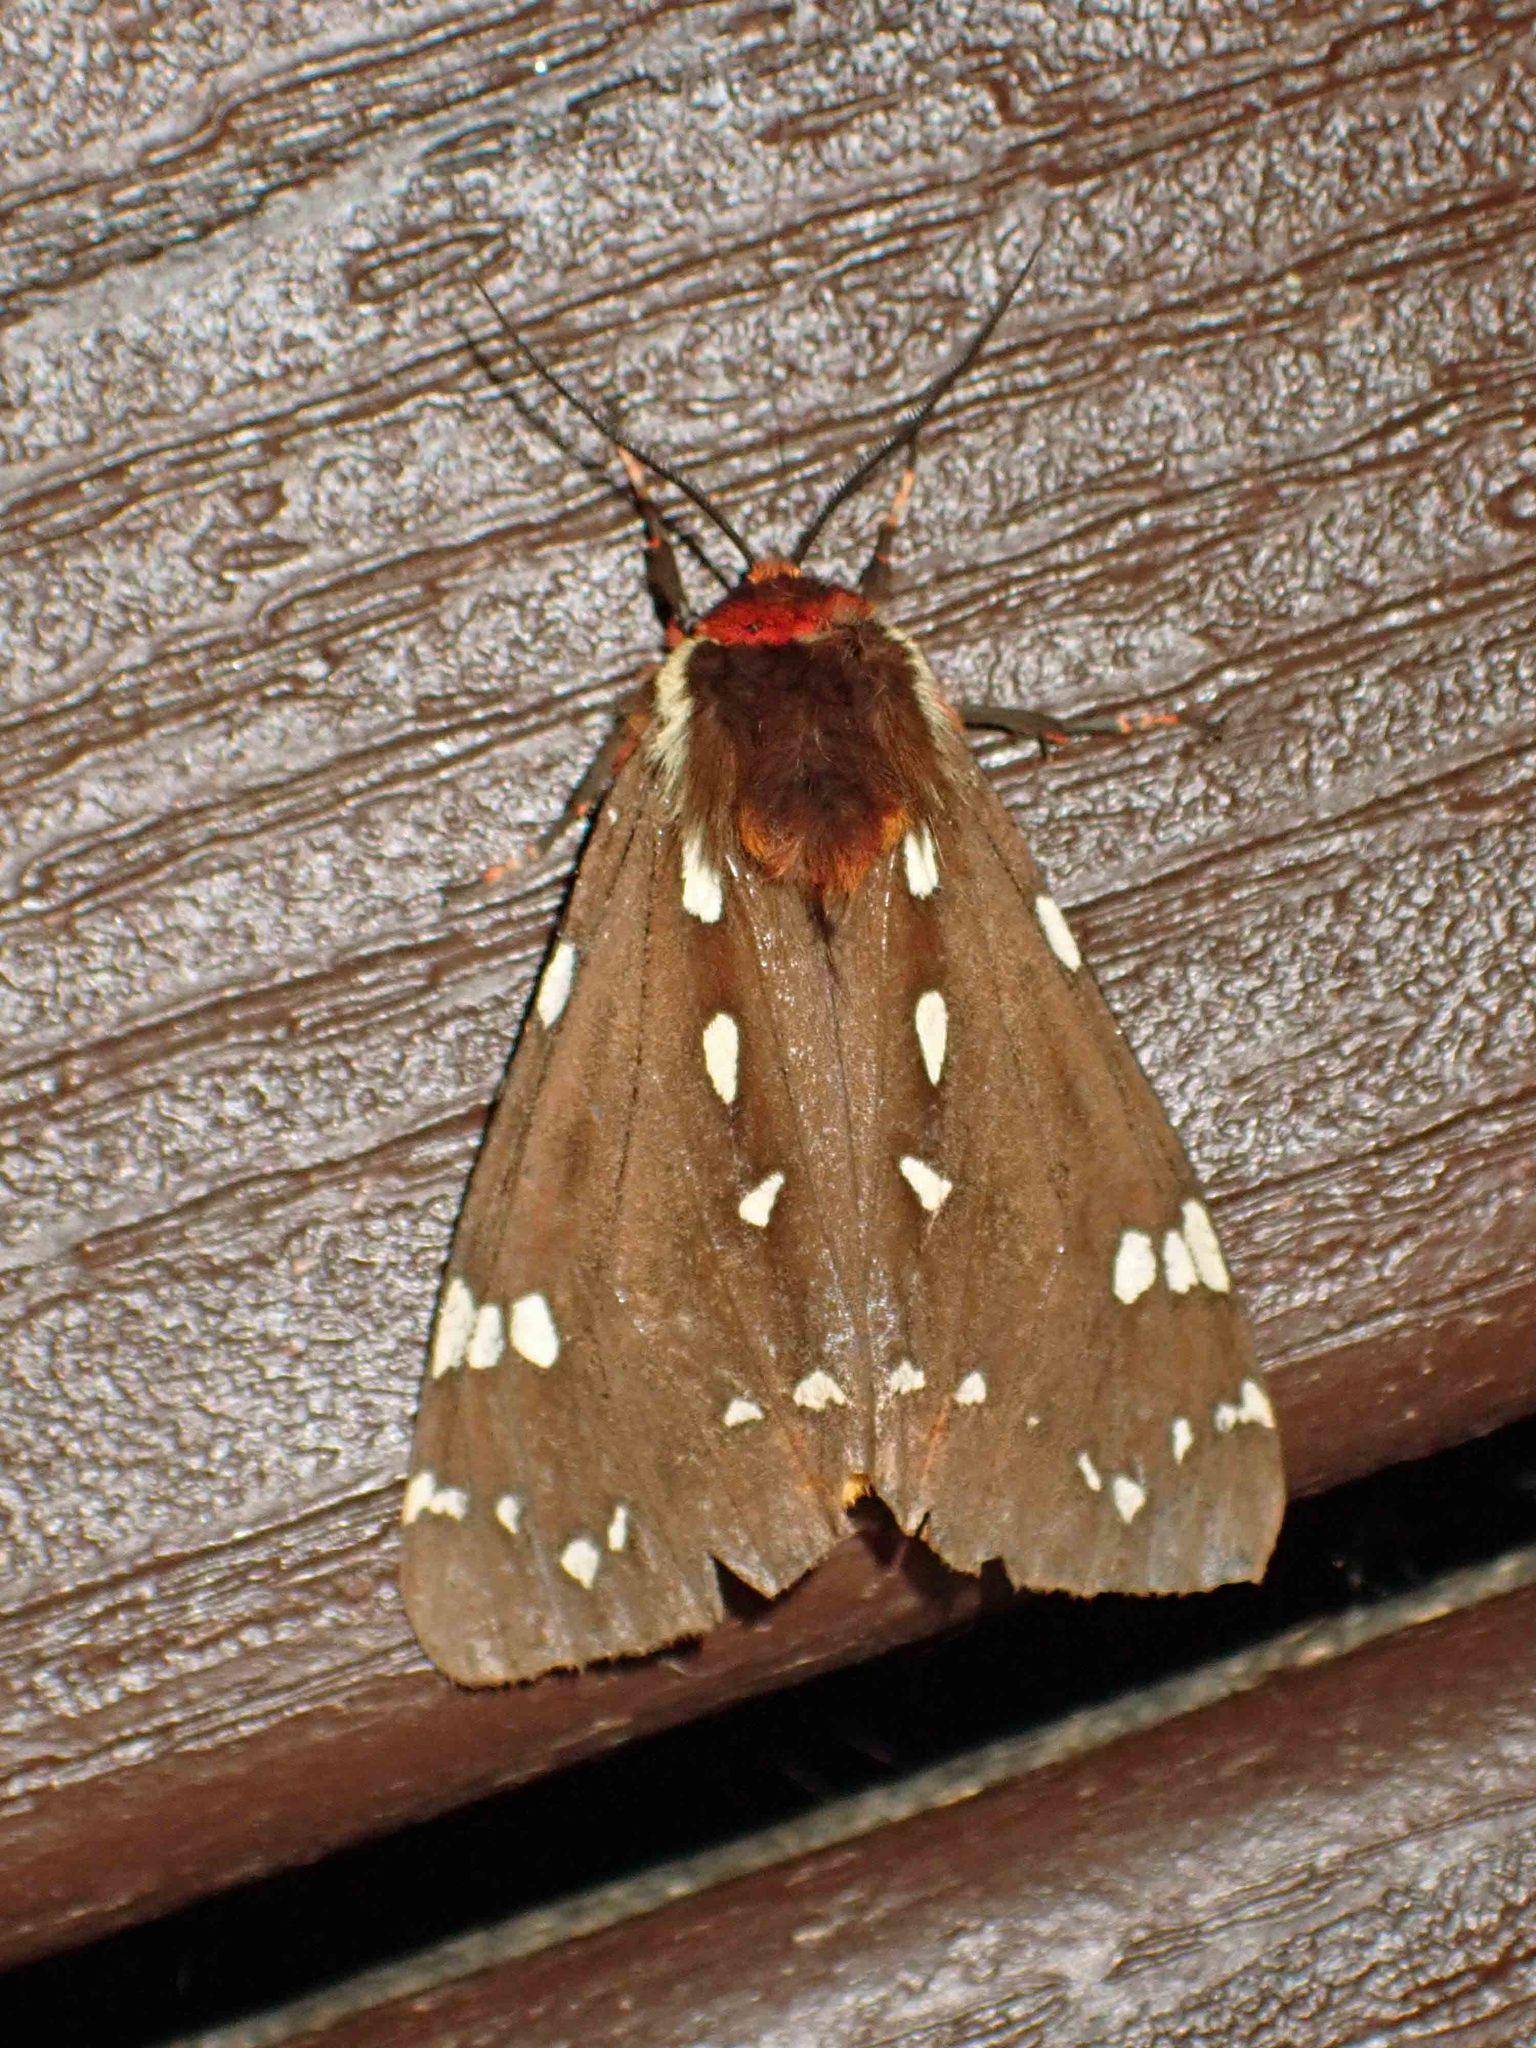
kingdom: Animalia
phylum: Arthropoda
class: Insecta
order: Lepidoptera
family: Erebidae
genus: Arctia
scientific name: Arctia parthenos
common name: St. lawrence tiger moth
